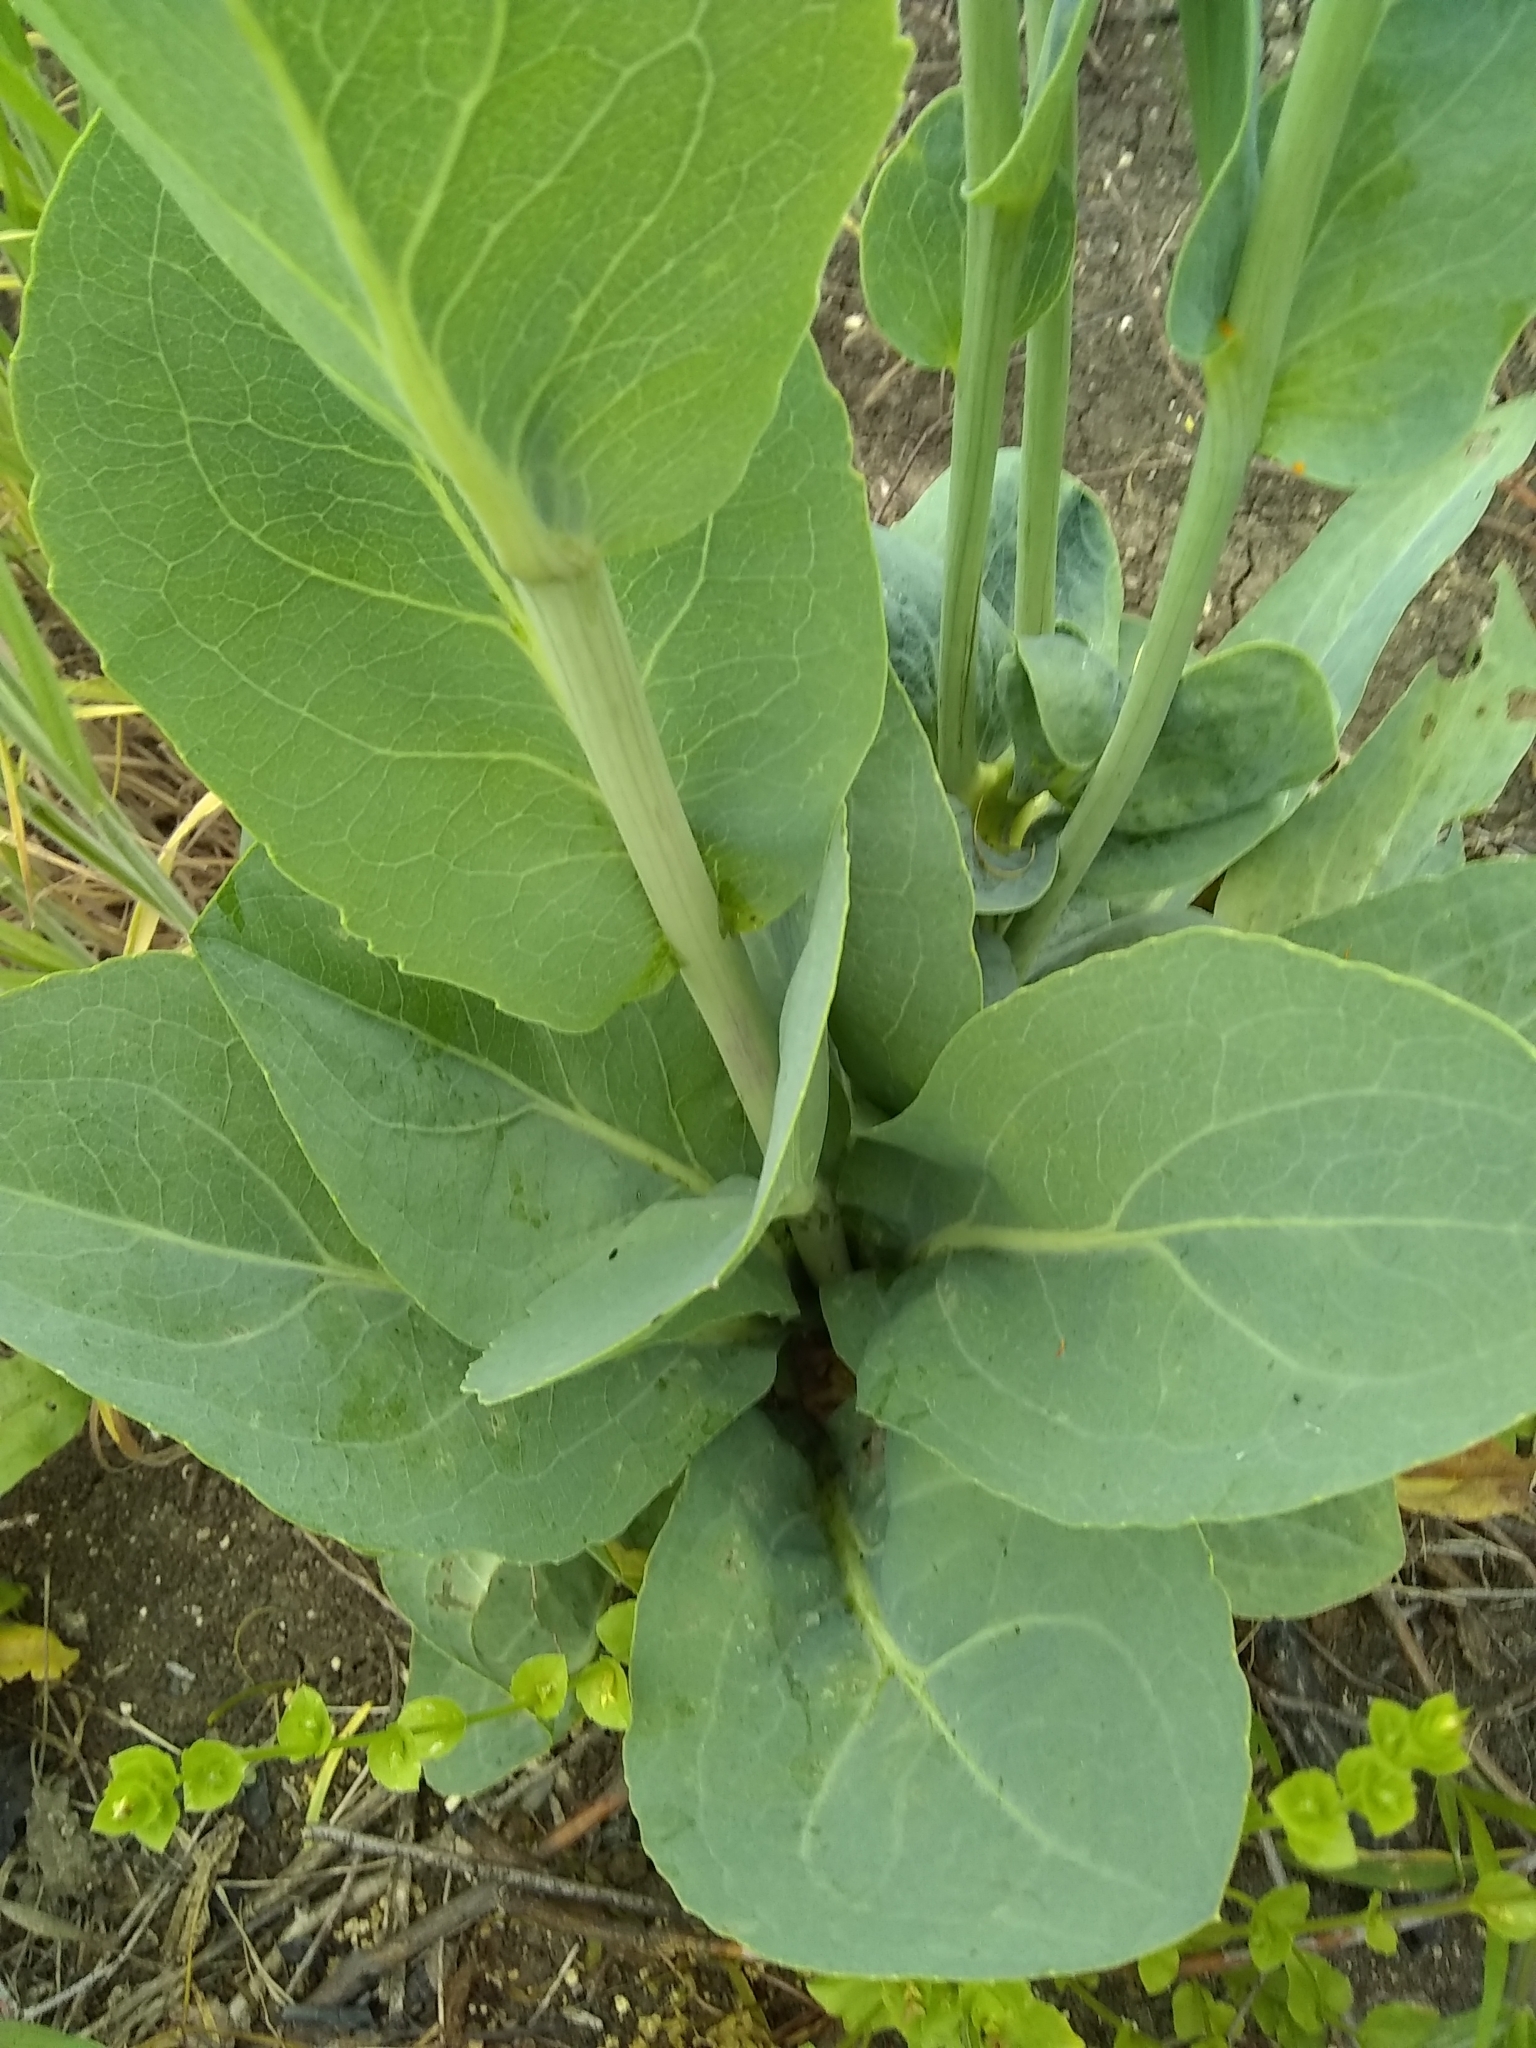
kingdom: Plantae
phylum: Tracheophyta
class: Magnoliopsida
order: Asterales
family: Asteraceae
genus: Rudbeckia
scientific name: Rudbeckia maxima
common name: Cabbage coneflower
